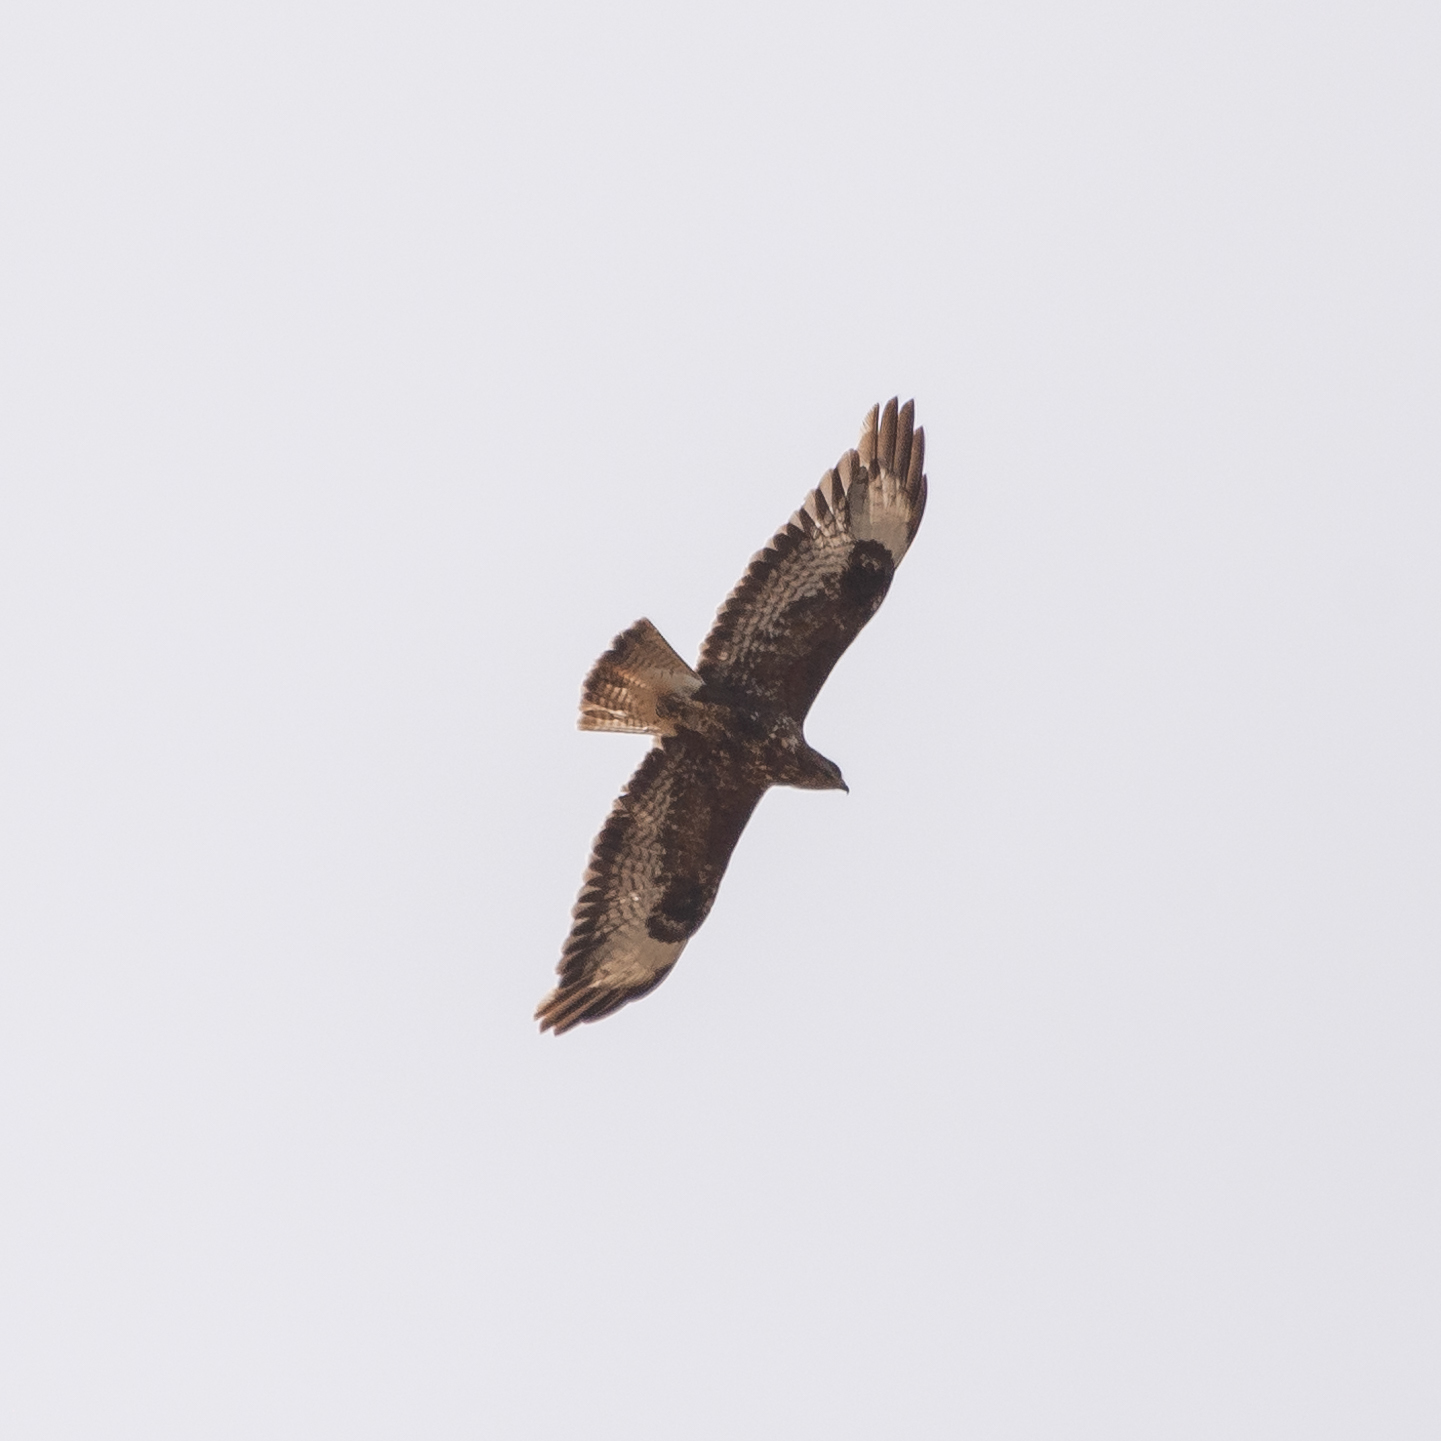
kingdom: Animalia
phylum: Chordata
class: Aves
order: Accipitriformes
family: Accipitridae
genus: Buteo
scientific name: Buteo buteo
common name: Common buzzard
